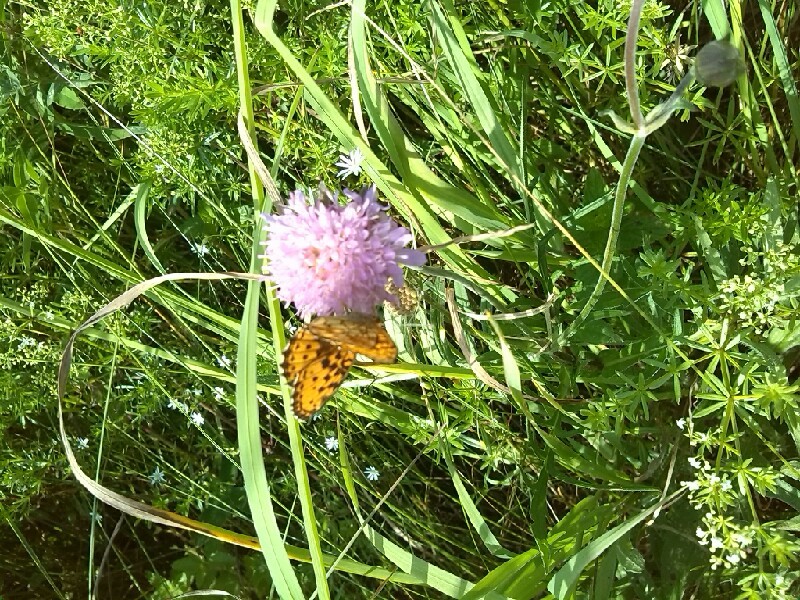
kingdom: Animalia
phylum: Arthropoda
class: Insecta
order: Lepidoptera
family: Nymphalidae
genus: Brenthis
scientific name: Brenthis ino
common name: Lesser marbled fritillary
